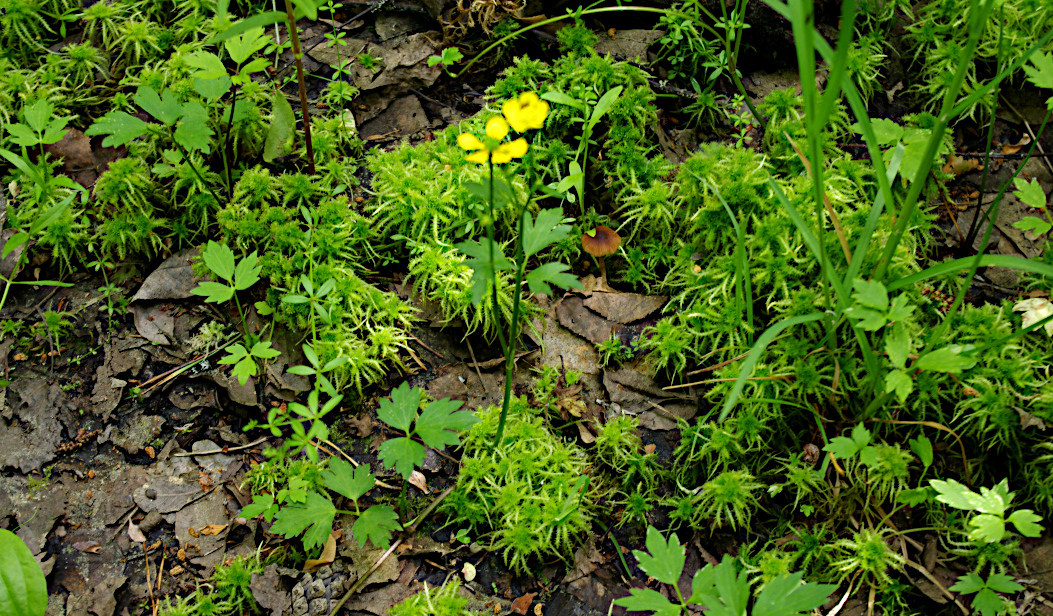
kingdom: Plantae
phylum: Tracheophyta
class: Magnoliopsida
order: Ranunculales
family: Ranunculaceae
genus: Ranunculus
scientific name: Ranunculus repens
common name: Creeping buttercup
